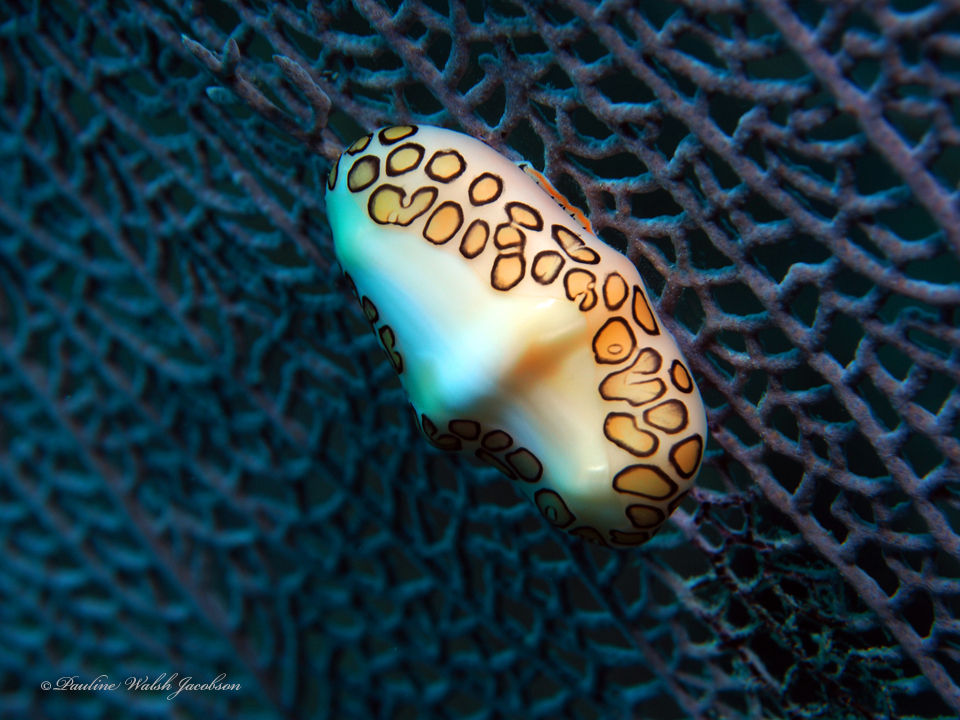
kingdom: Animalia
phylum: Mollusca
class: Gastropoda
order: Littorinimorpha
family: Ovulidae
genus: Cyphoma
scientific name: Cyphoma gibbosum
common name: Flamingo tongue
